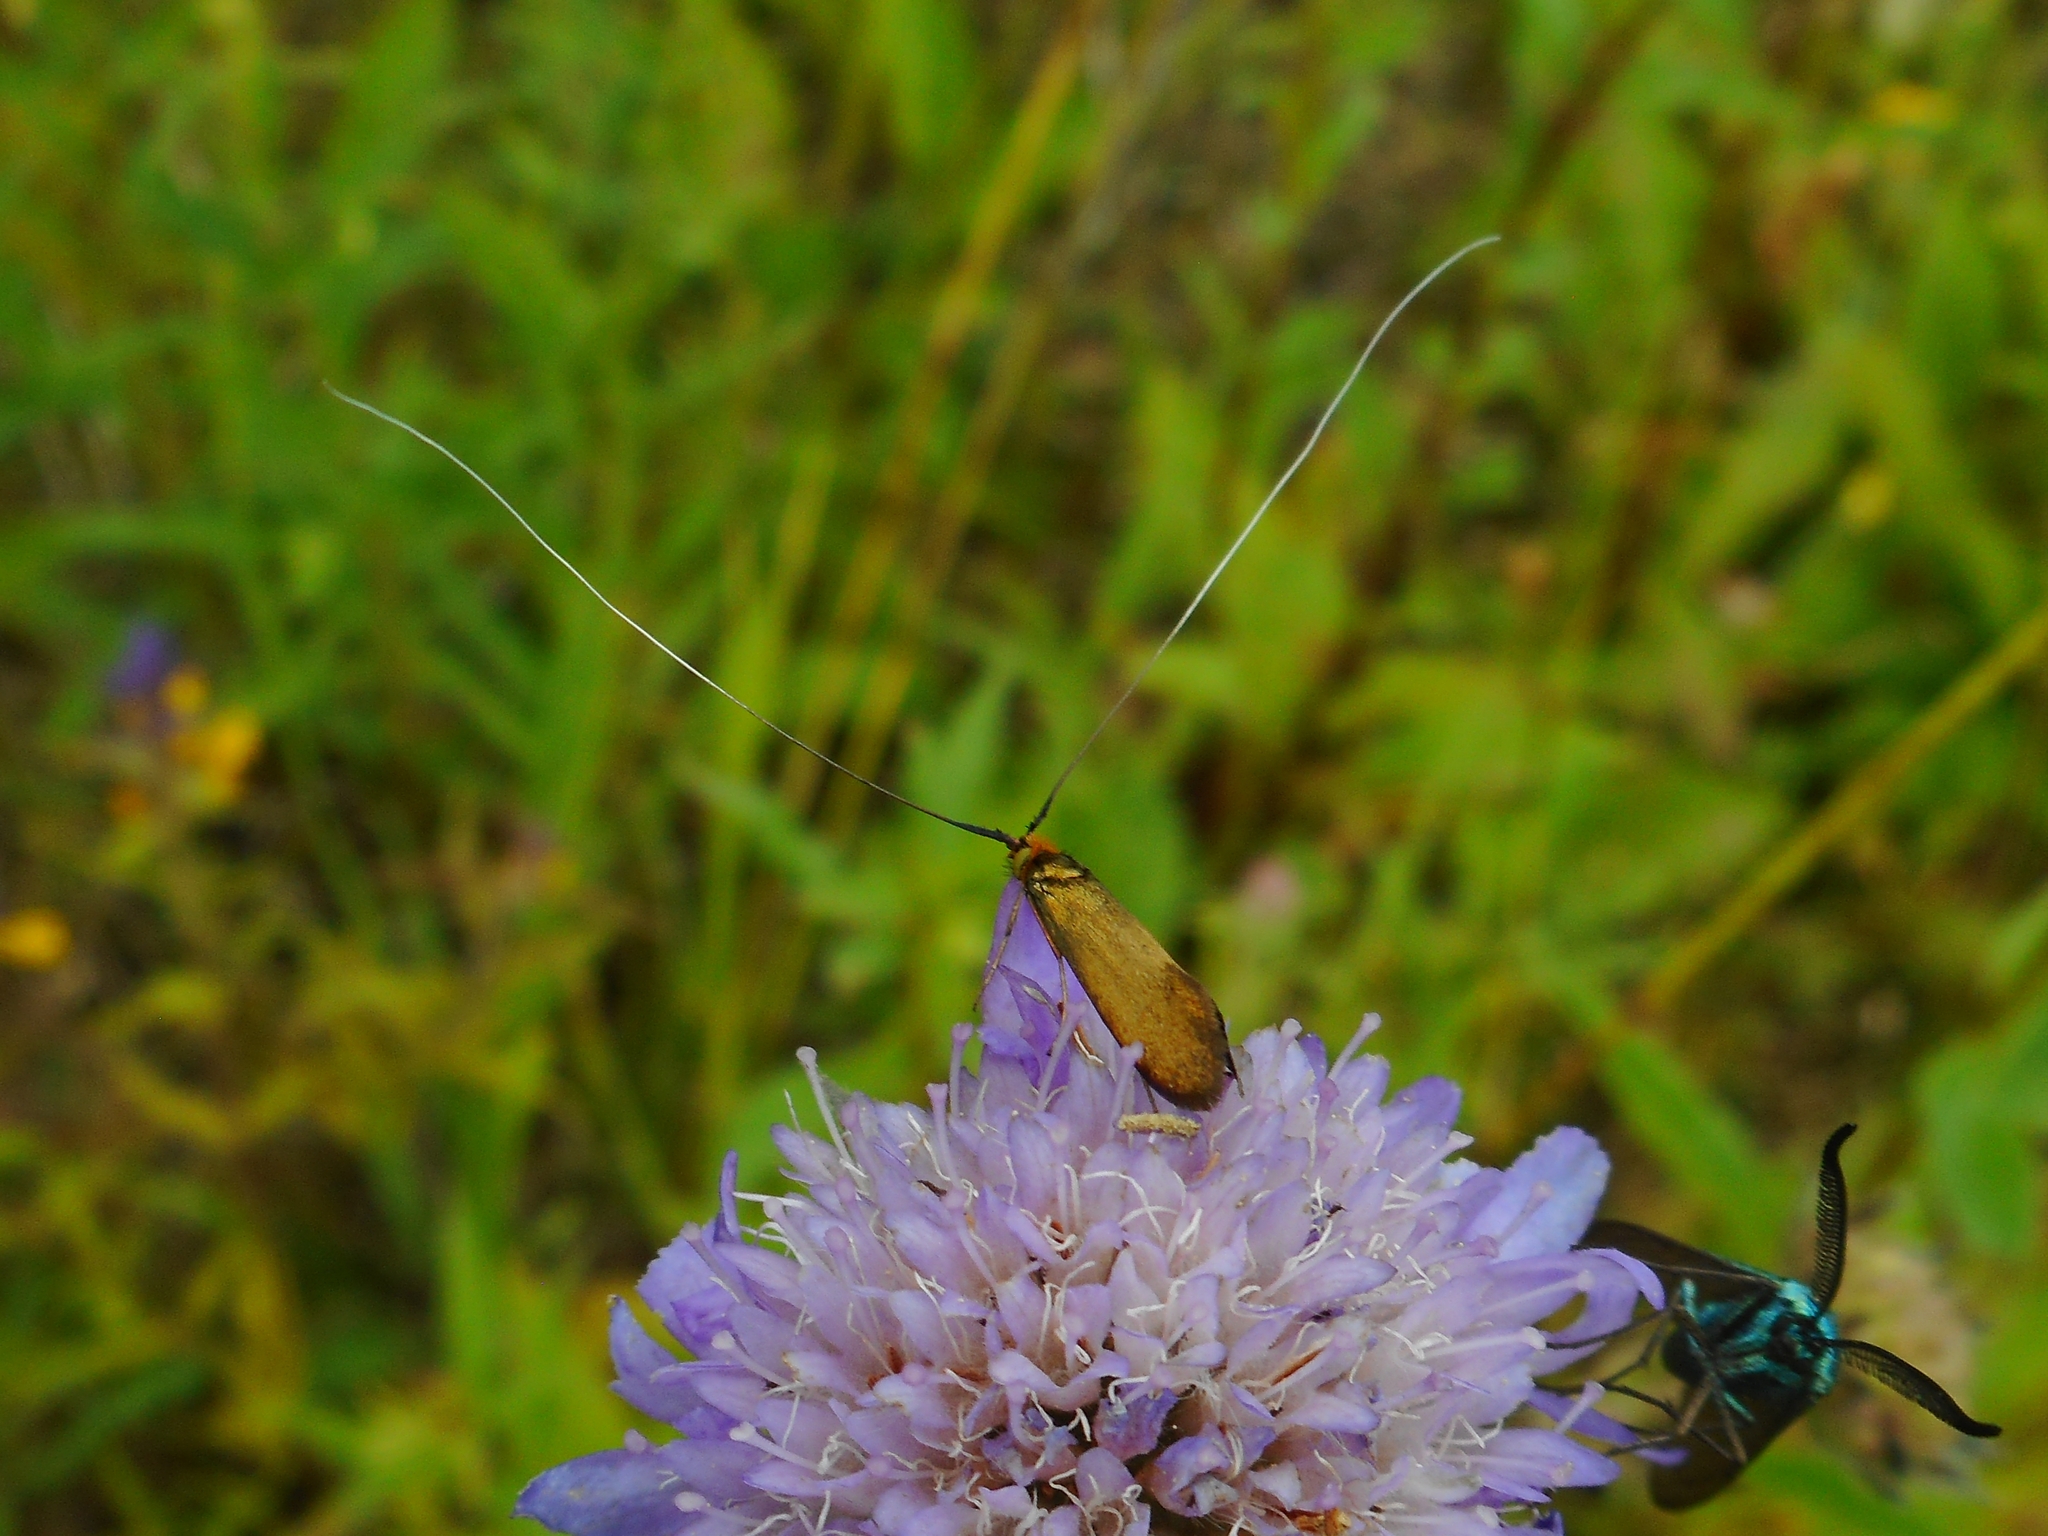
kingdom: Animalia
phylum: Arthropoda
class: Insecta
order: Lepidoptera
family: Adelidae
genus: Nemophora
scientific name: Nemophora metallica
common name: Brassy long-horn
